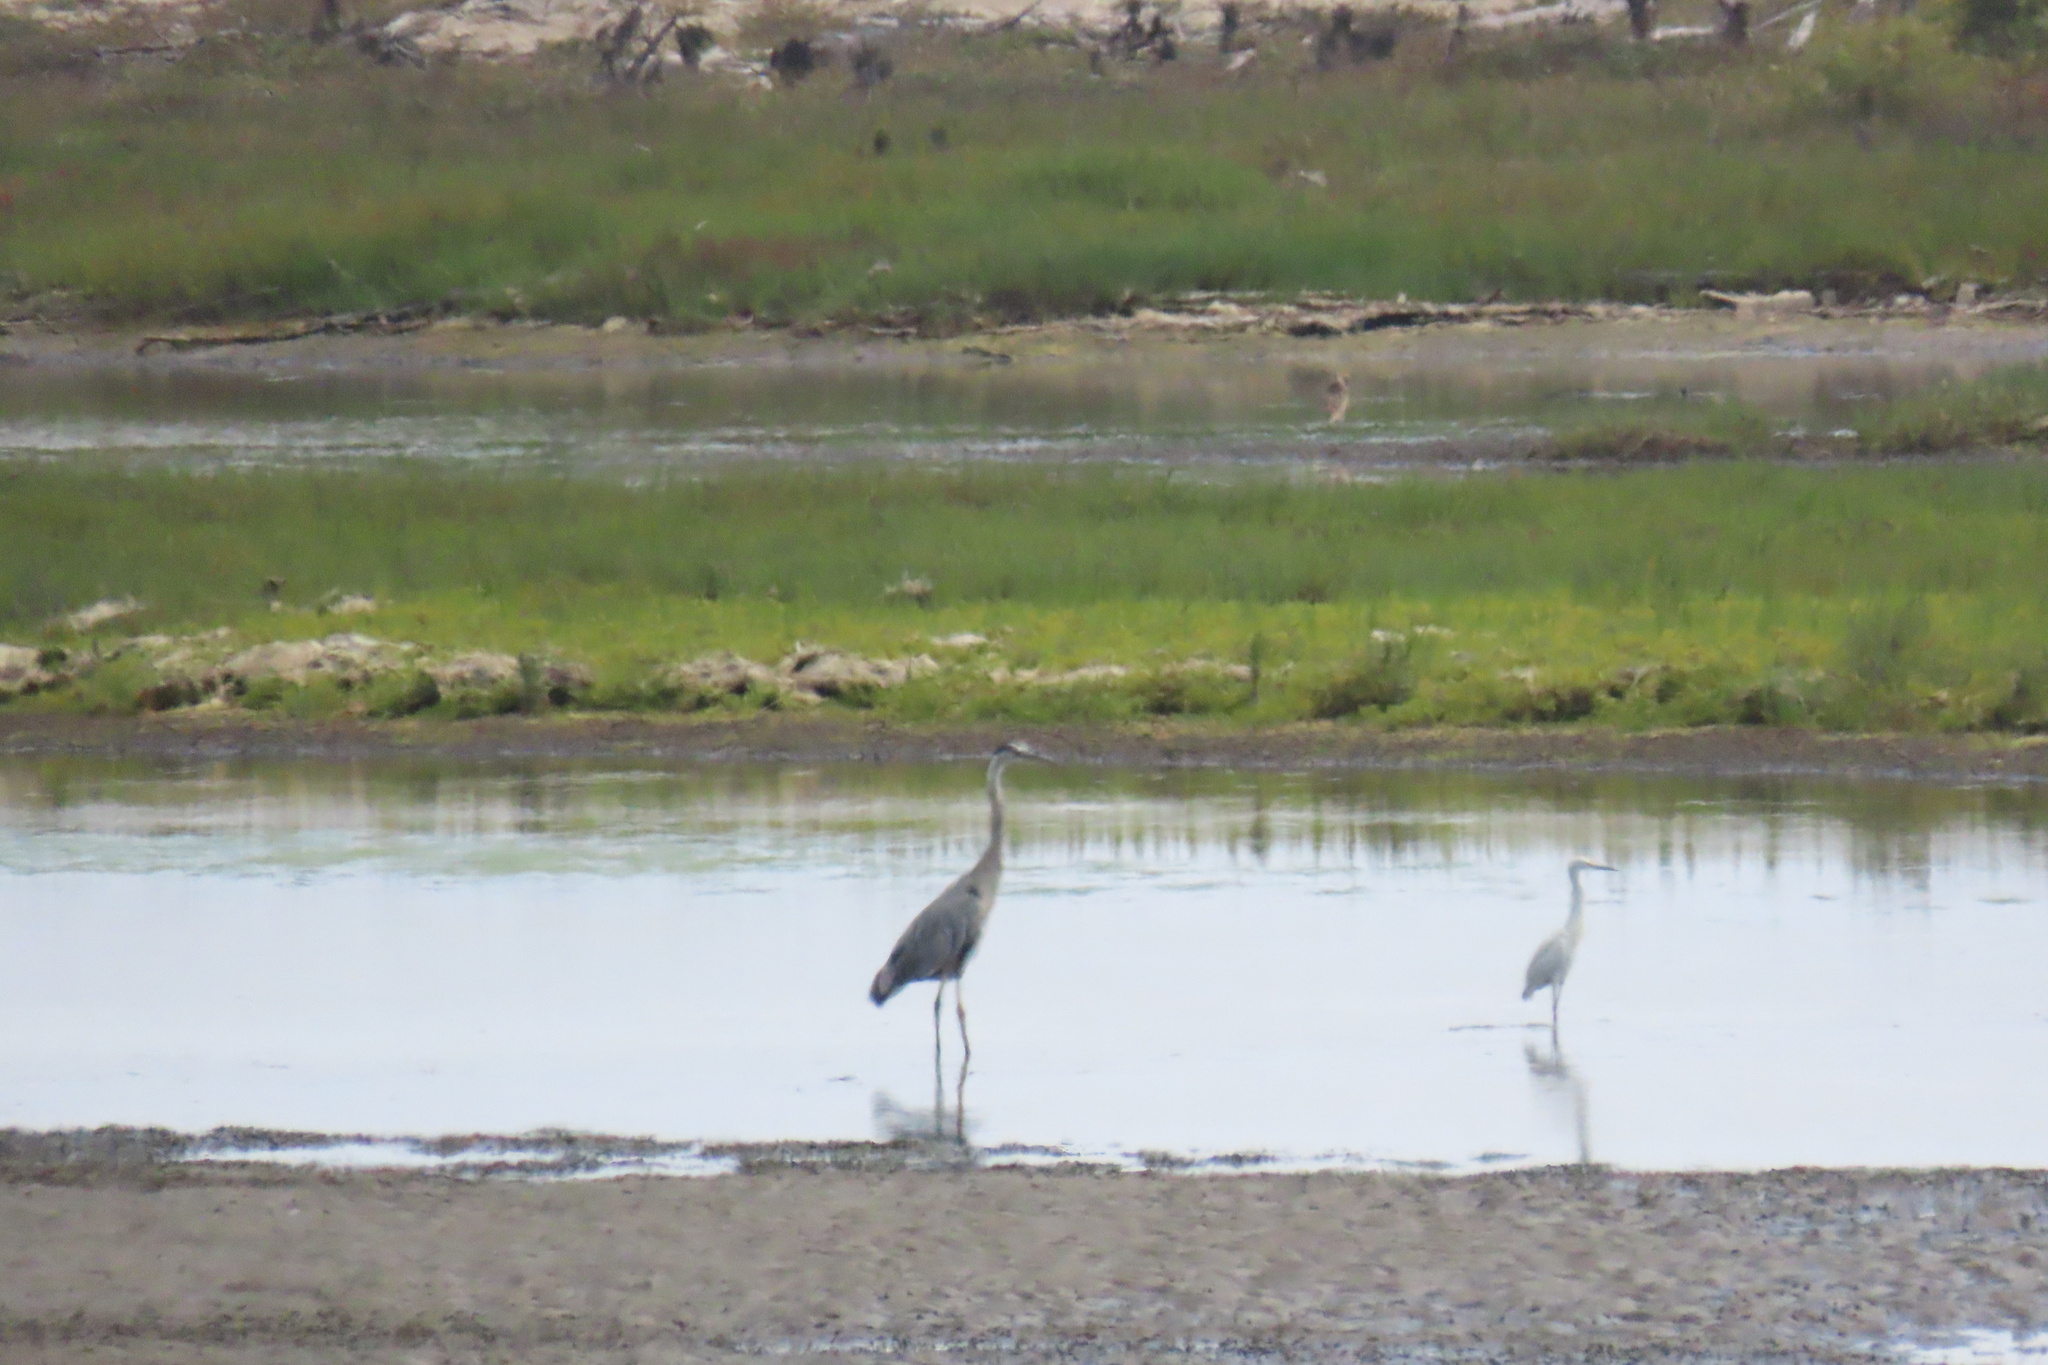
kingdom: Animalia
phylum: Chordata
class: Aves
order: Pelecaniformes
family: Ardeidae
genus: Ardea
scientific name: Ardea herodias
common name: Great blue heron
